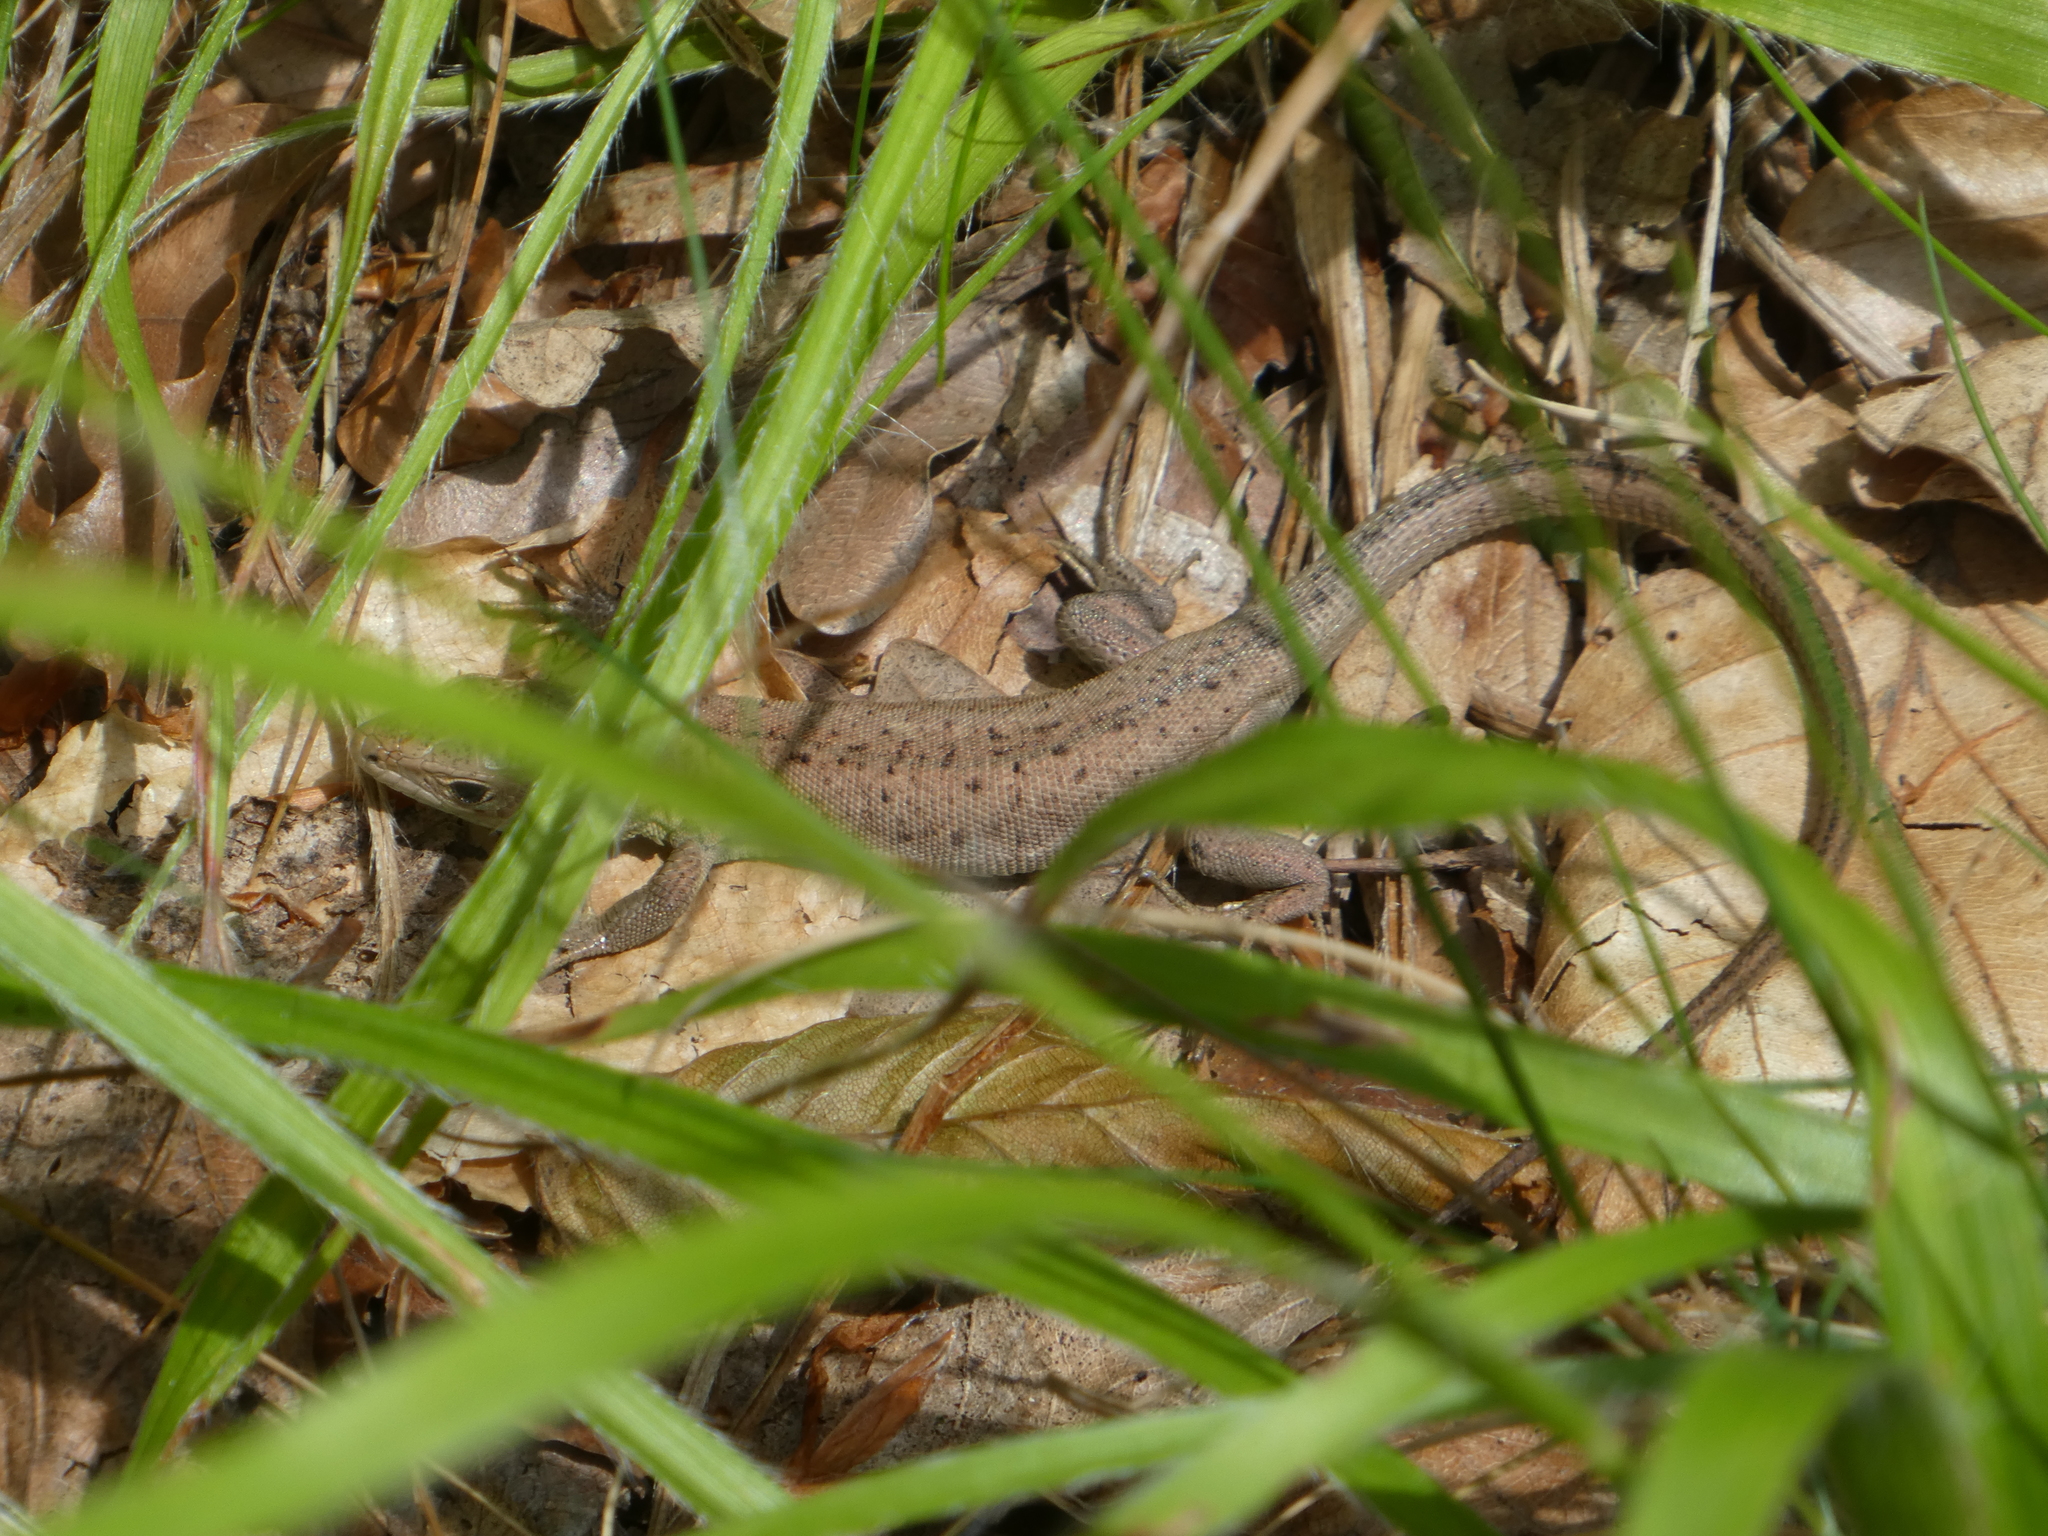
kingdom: Animalia
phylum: Chordata
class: Squamata
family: Lacertidae
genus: Lacerta
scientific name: Lacerta viridis
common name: European green lizard
